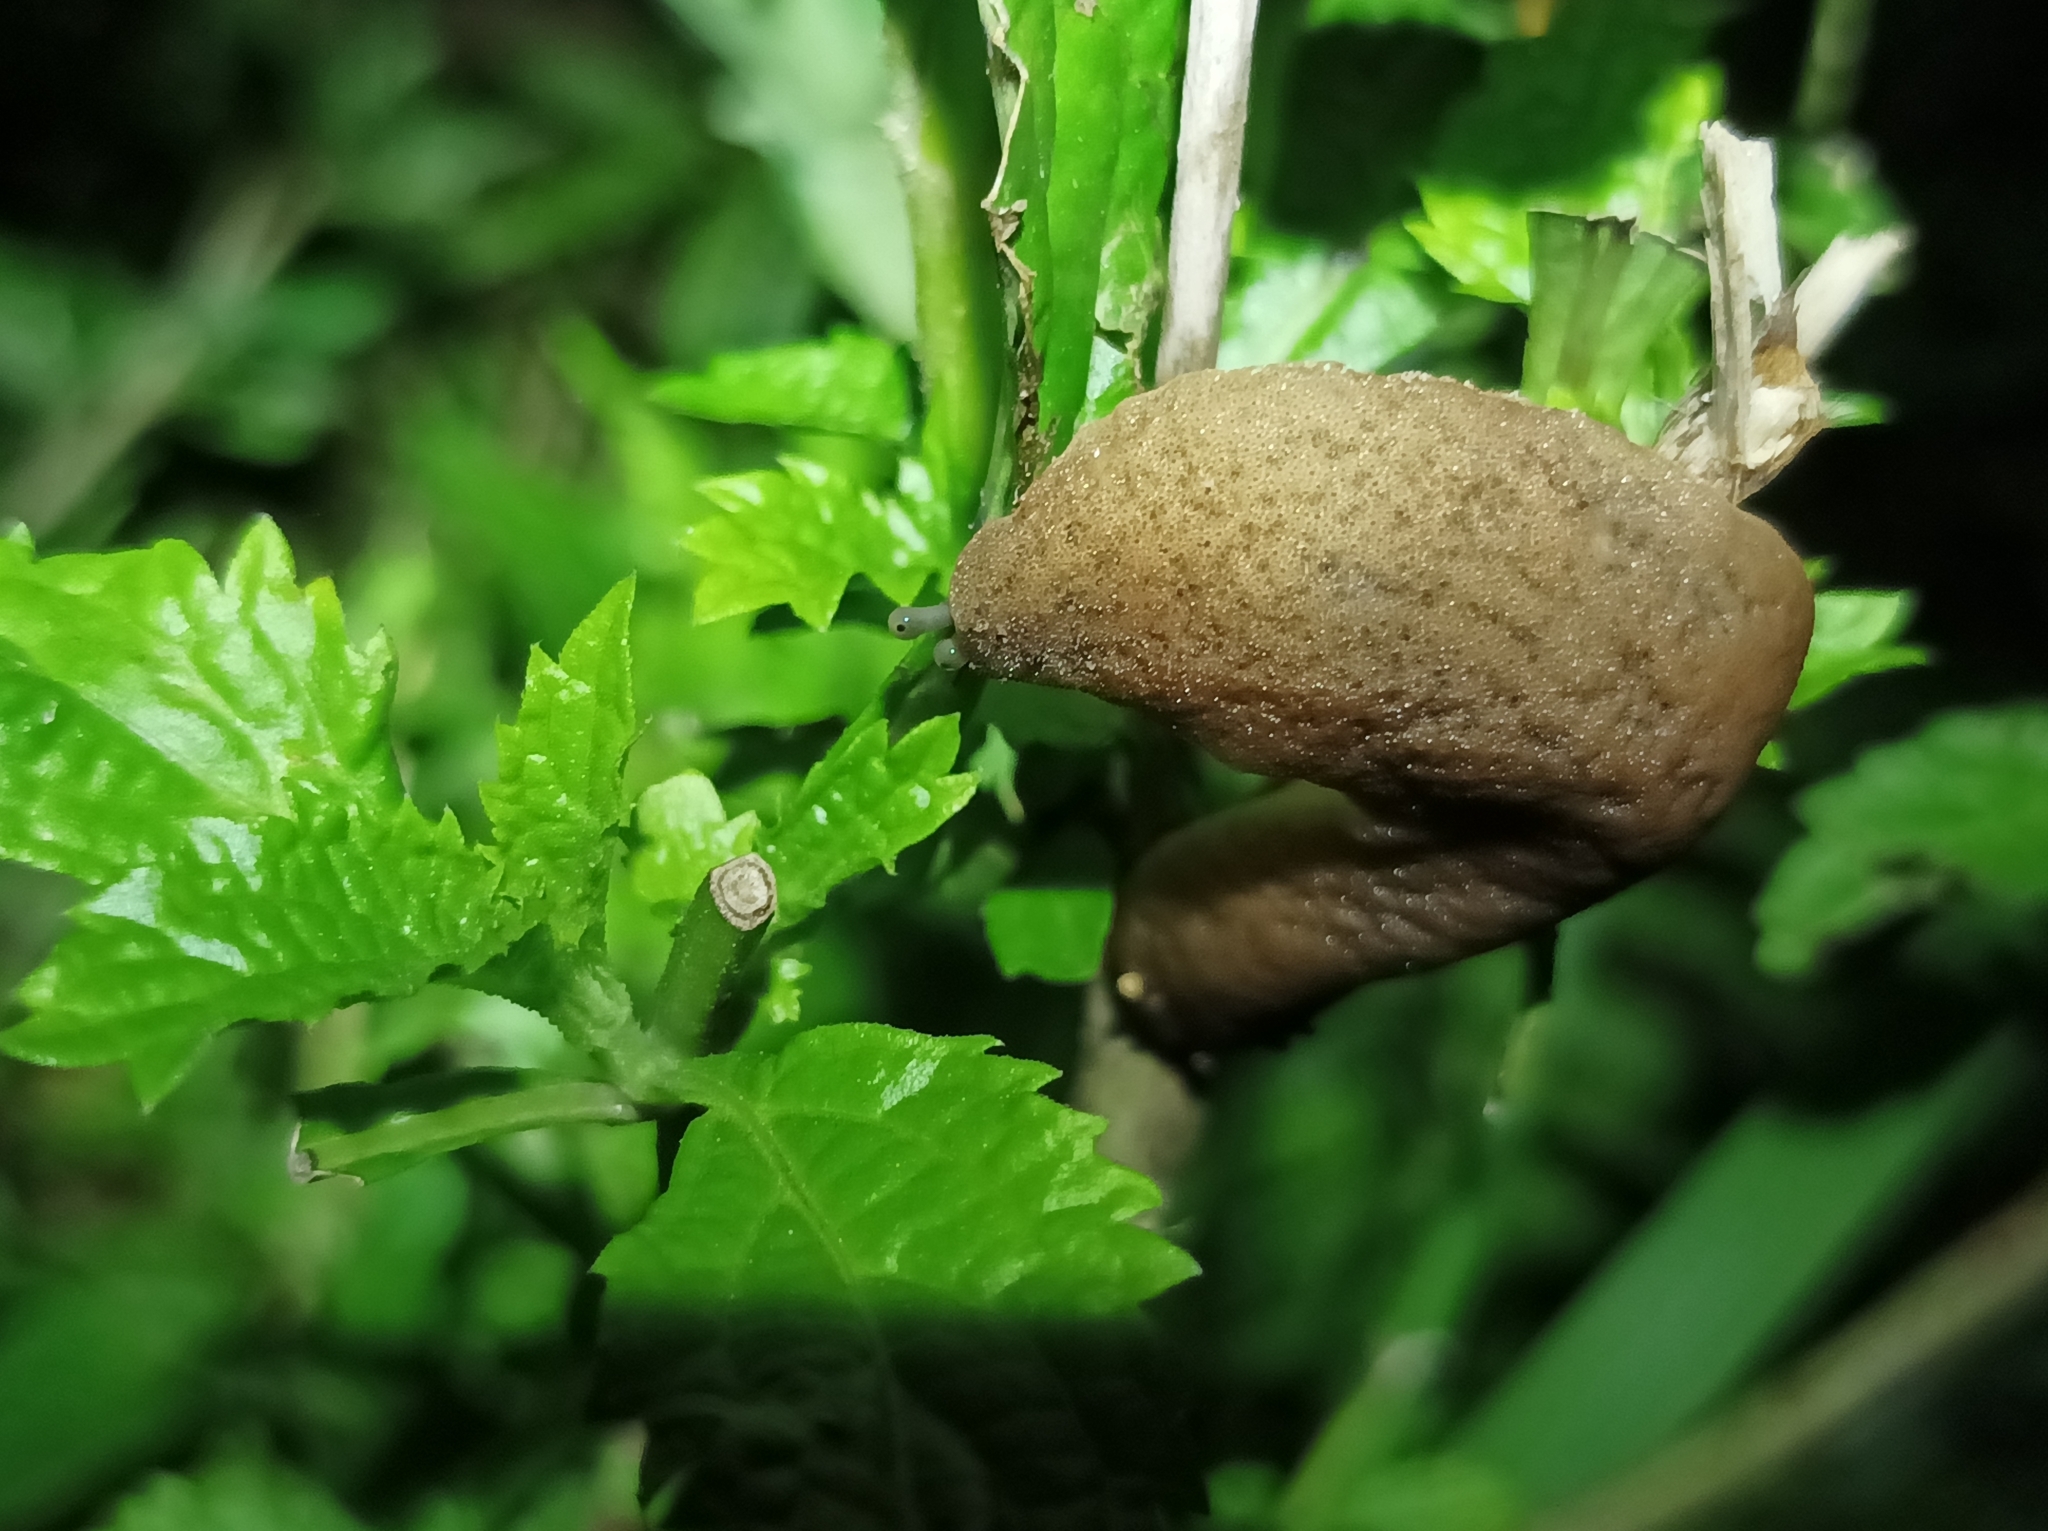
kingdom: Animalia
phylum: Mollusca
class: Gastropoda
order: Systellommatophora
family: Veronicellidae
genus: Sarasinula
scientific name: Sarasinula plebeia
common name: Caribbean leatherleaf
